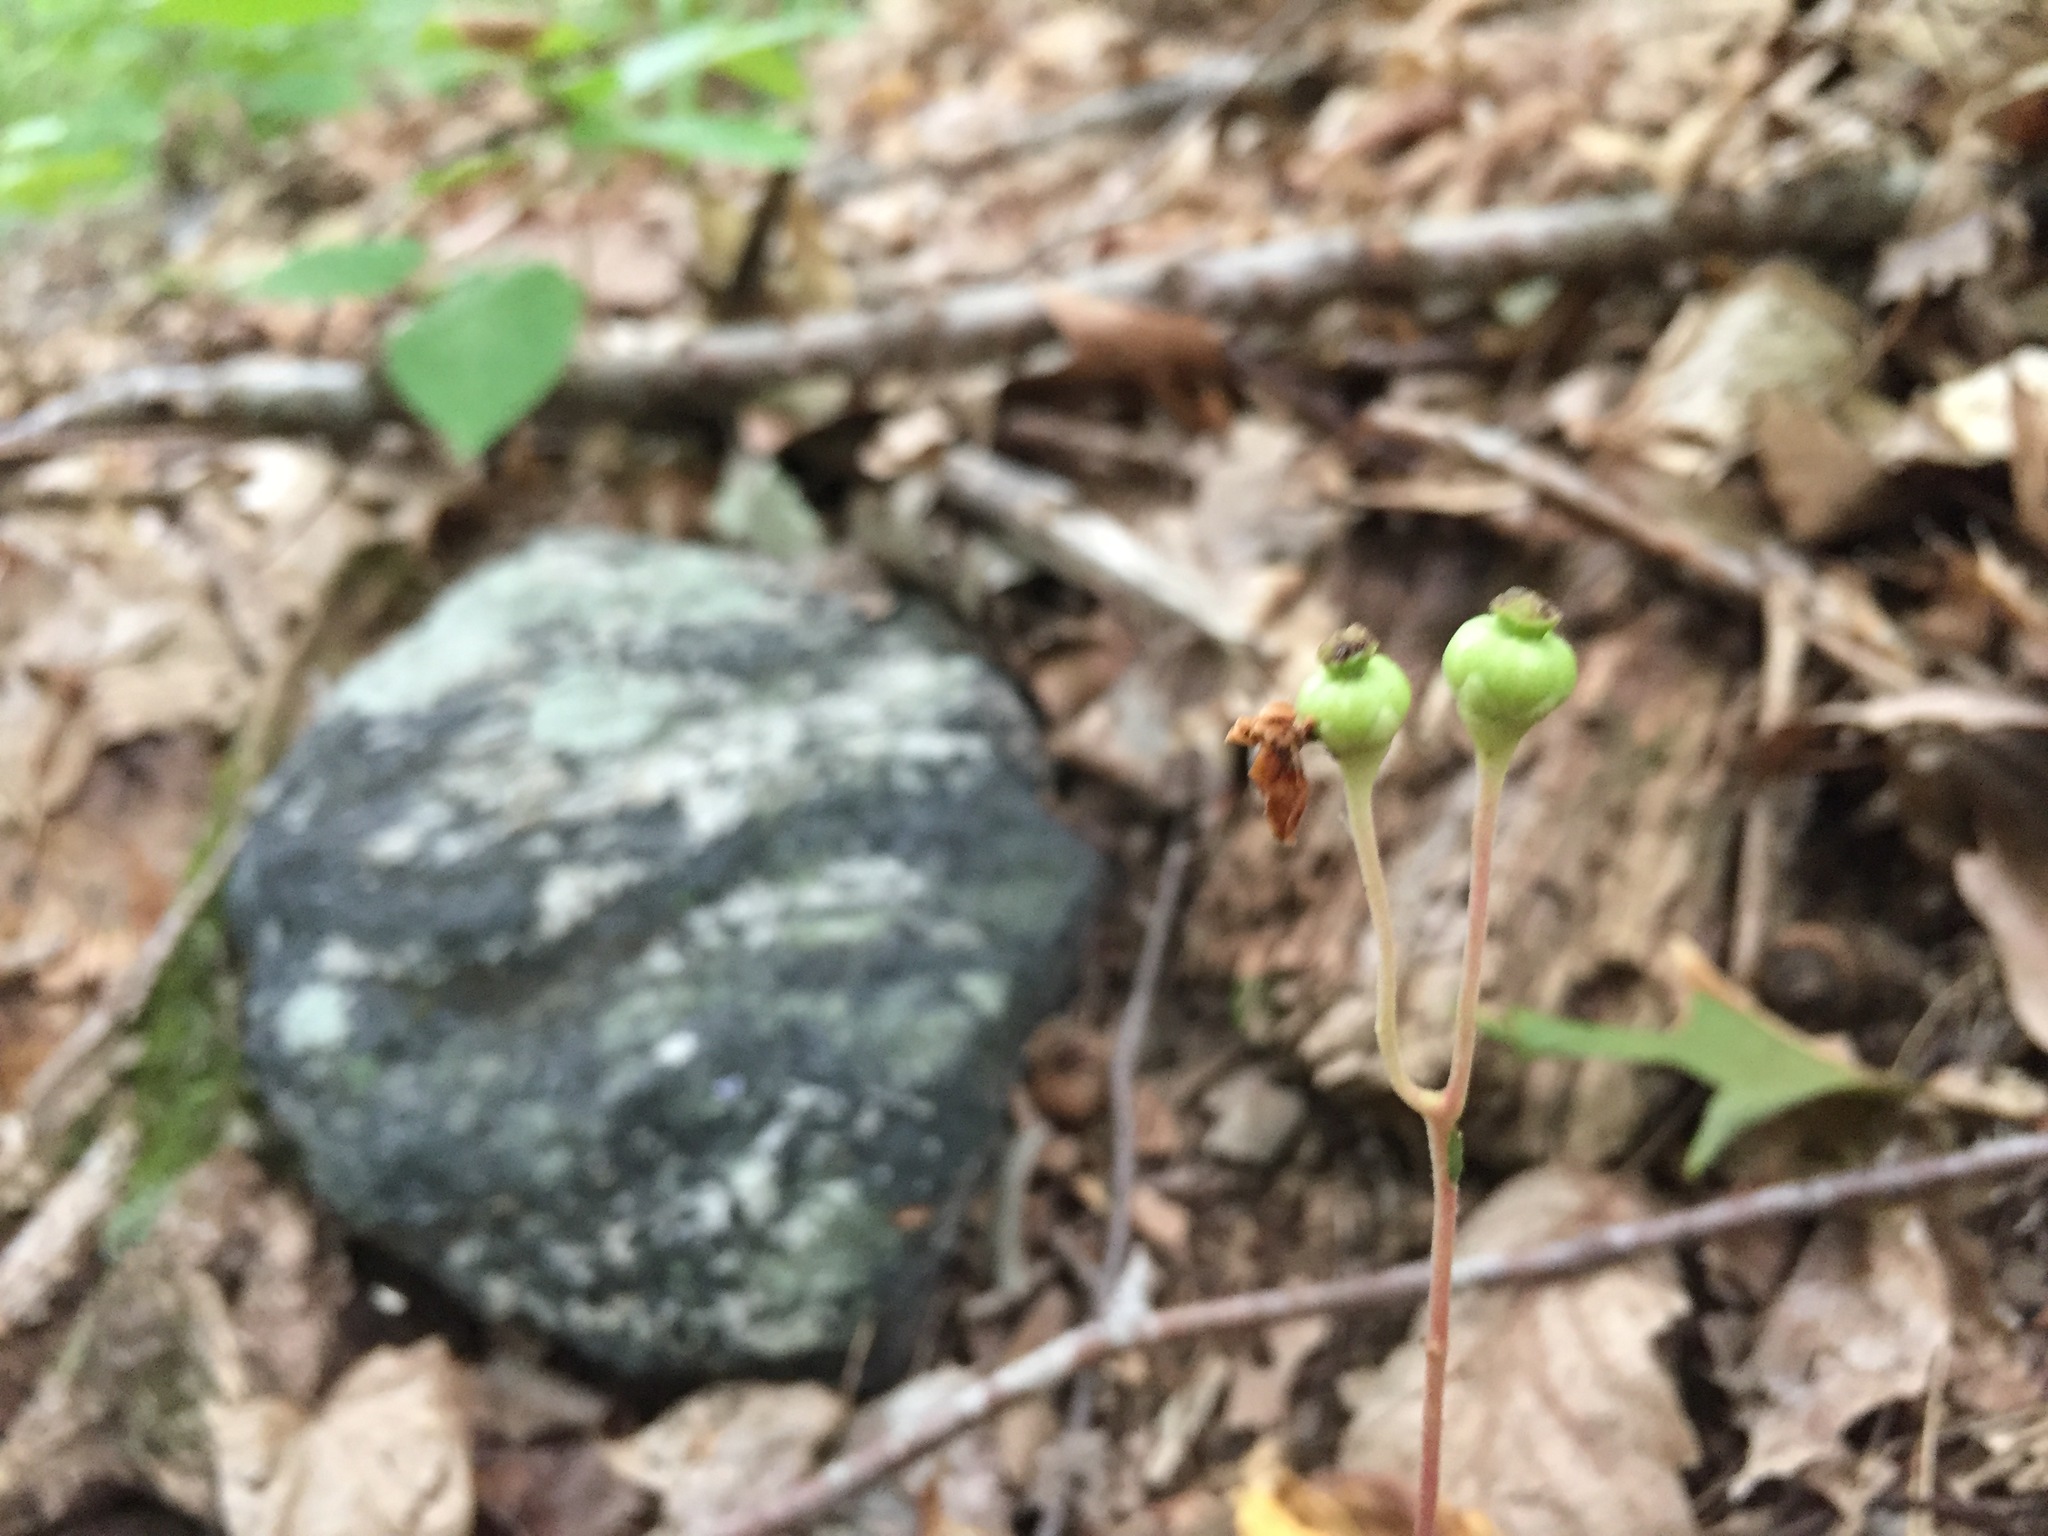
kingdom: Plantae
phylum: Tracheophyta
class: Magnoliopsida
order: Ericales
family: Ericaceae
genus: Chimaphila
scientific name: Chimaphila maculata
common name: Spotted pipsissewa
